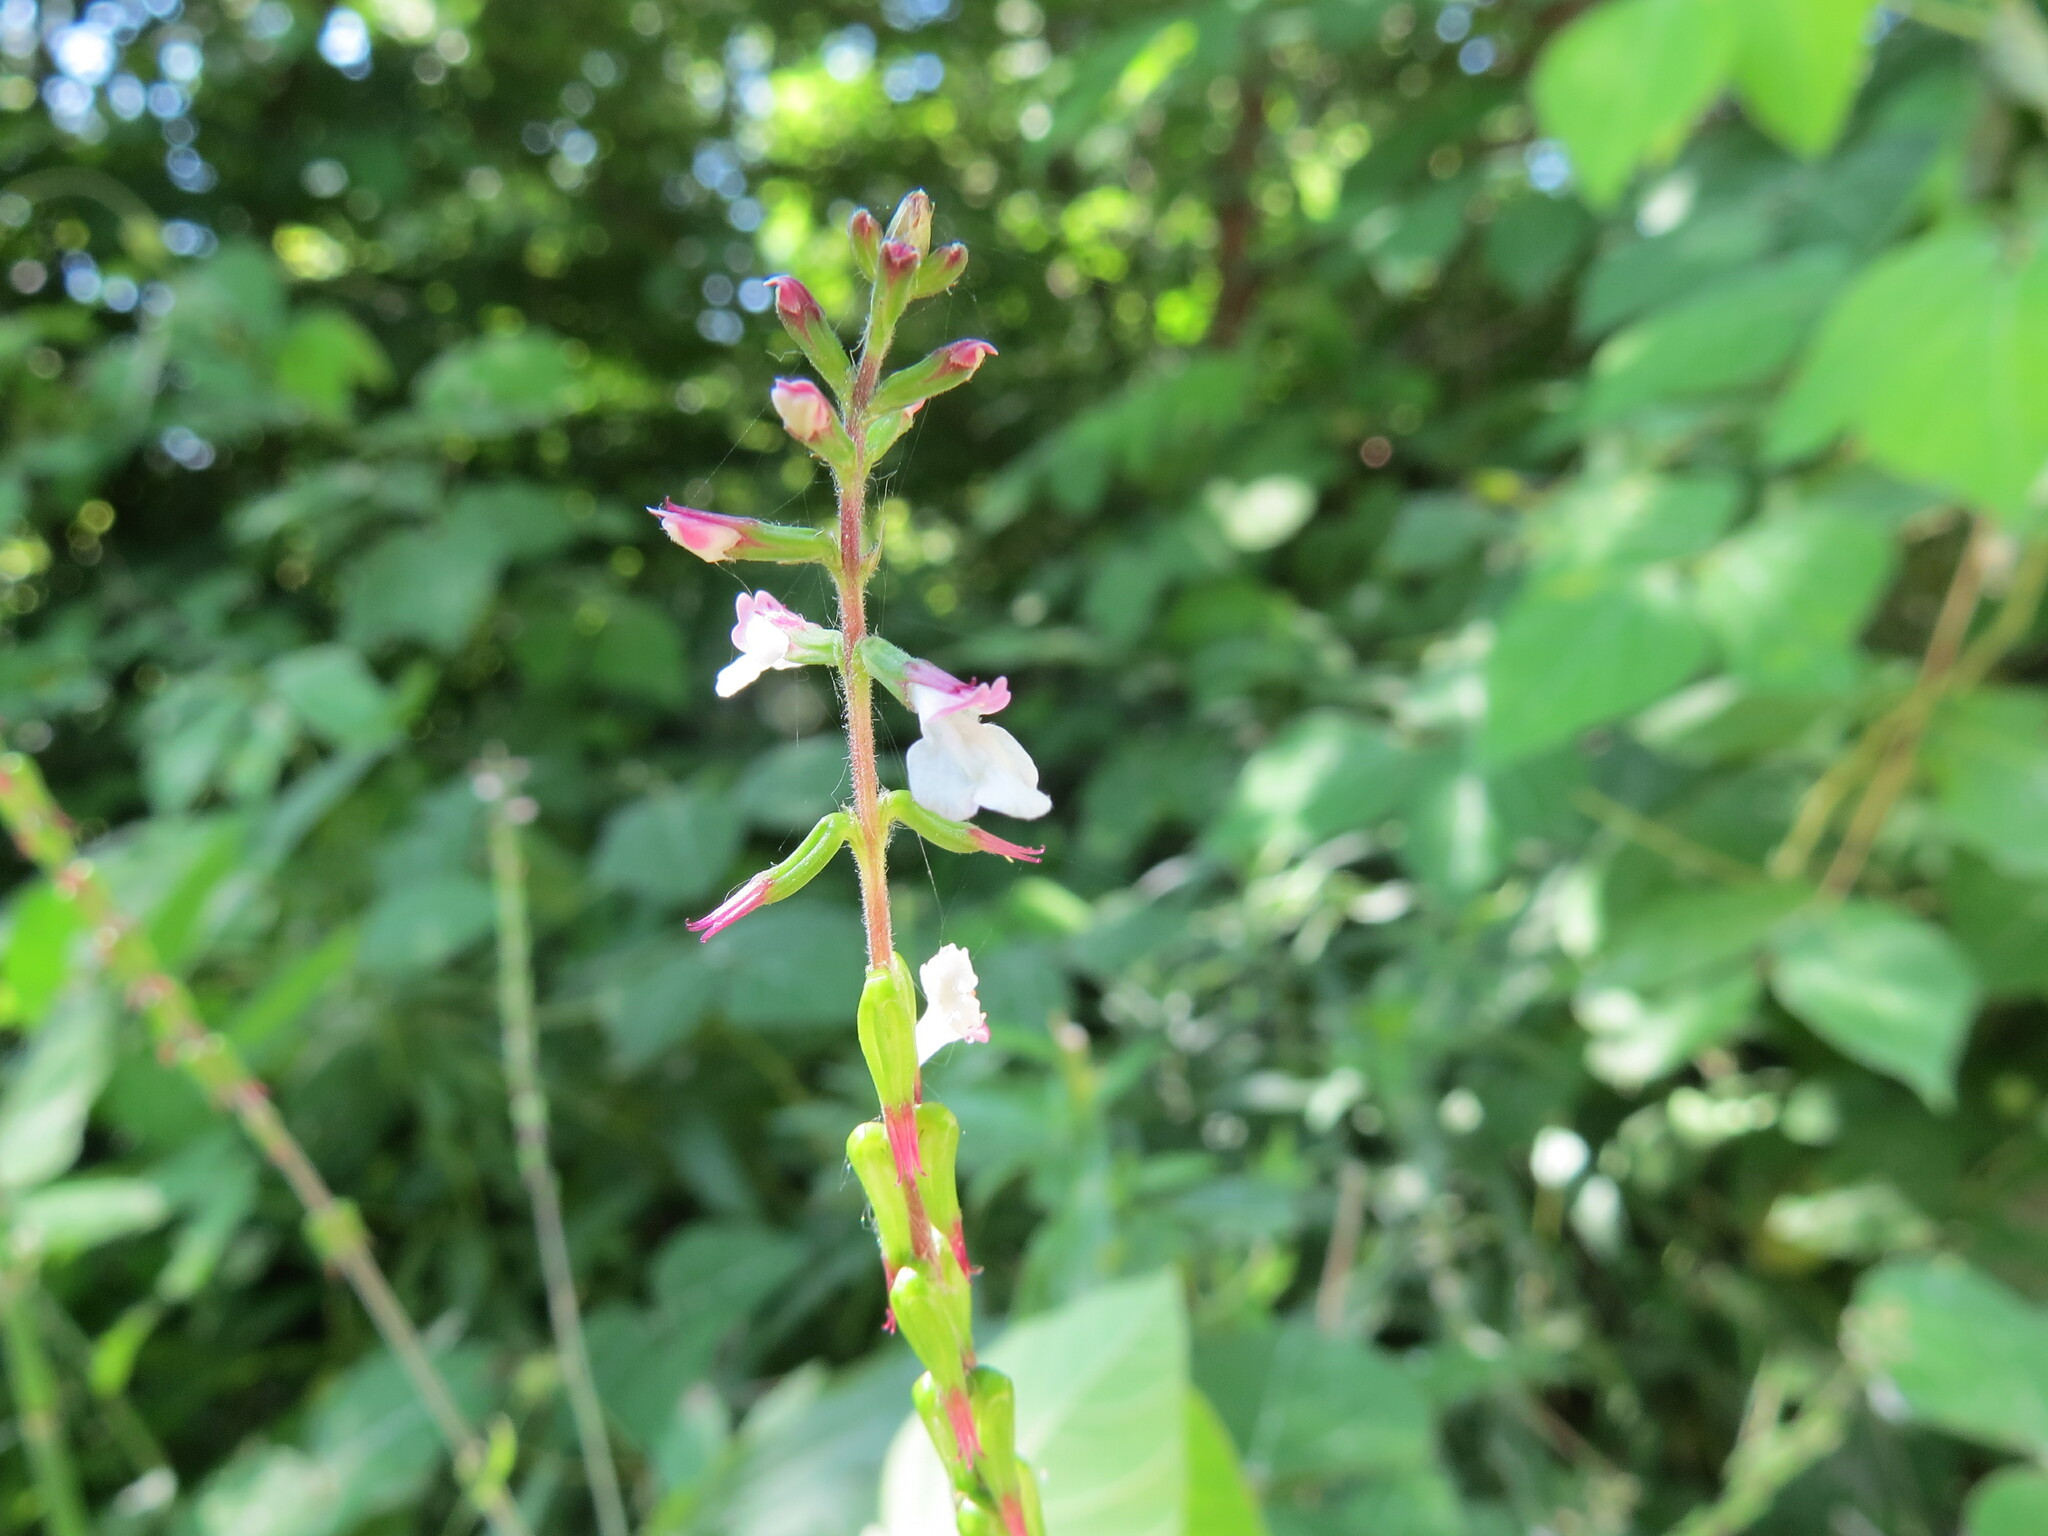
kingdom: Plantae
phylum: Tracheophyta
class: Magnoliopsida
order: Lamiales
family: Phrymaceae
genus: Phryma
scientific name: Phryma leptostachya
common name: American lopseed
